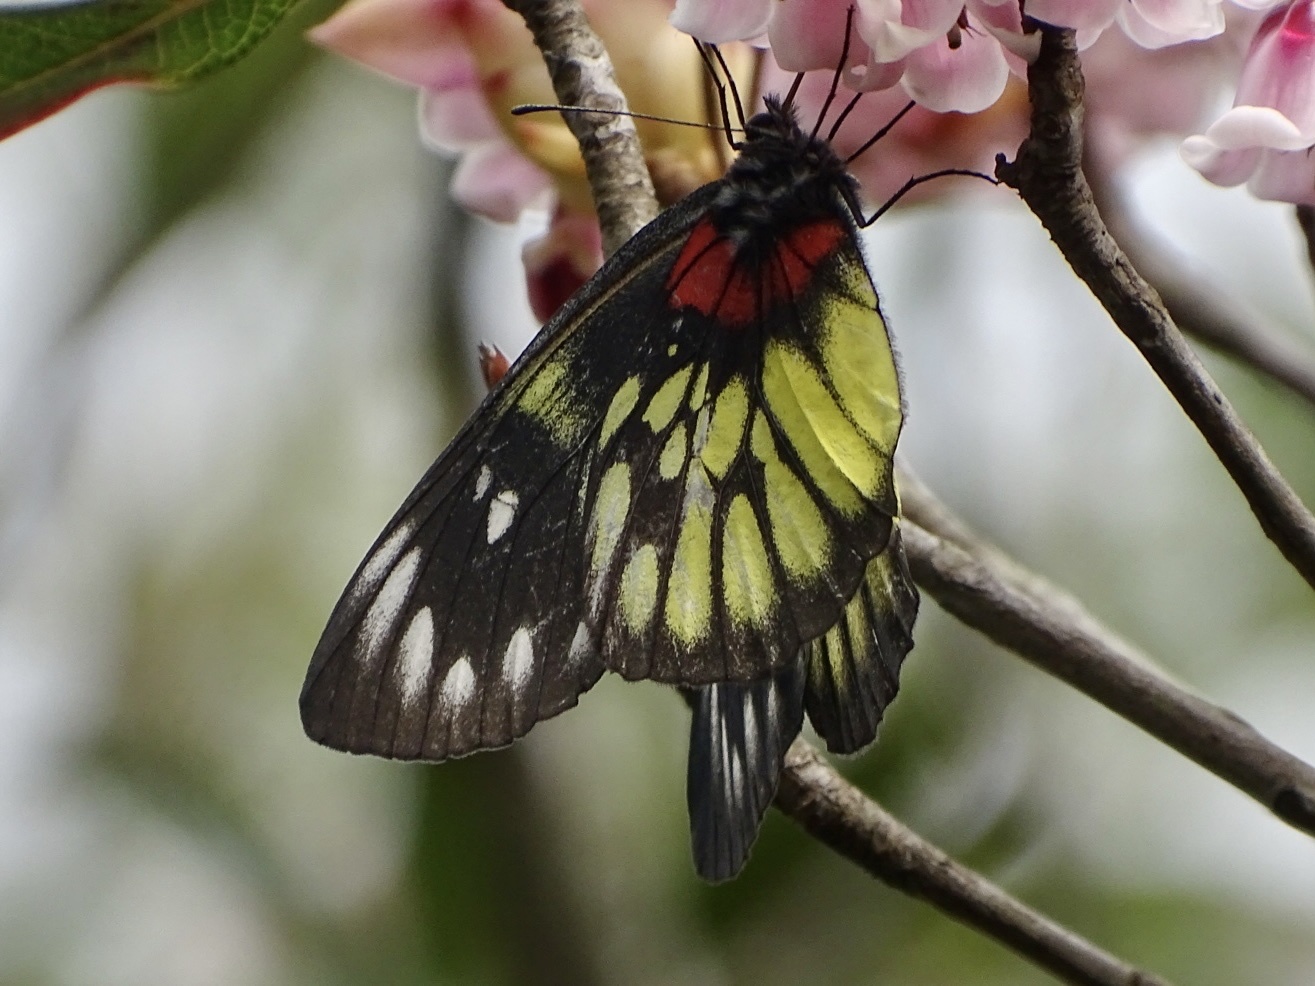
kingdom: Animalia
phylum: Arthropoda
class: Insecta
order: Lepidoptera
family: Pieridae
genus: Delias
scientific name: Delias pasithoe
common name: Red-base jezebel
